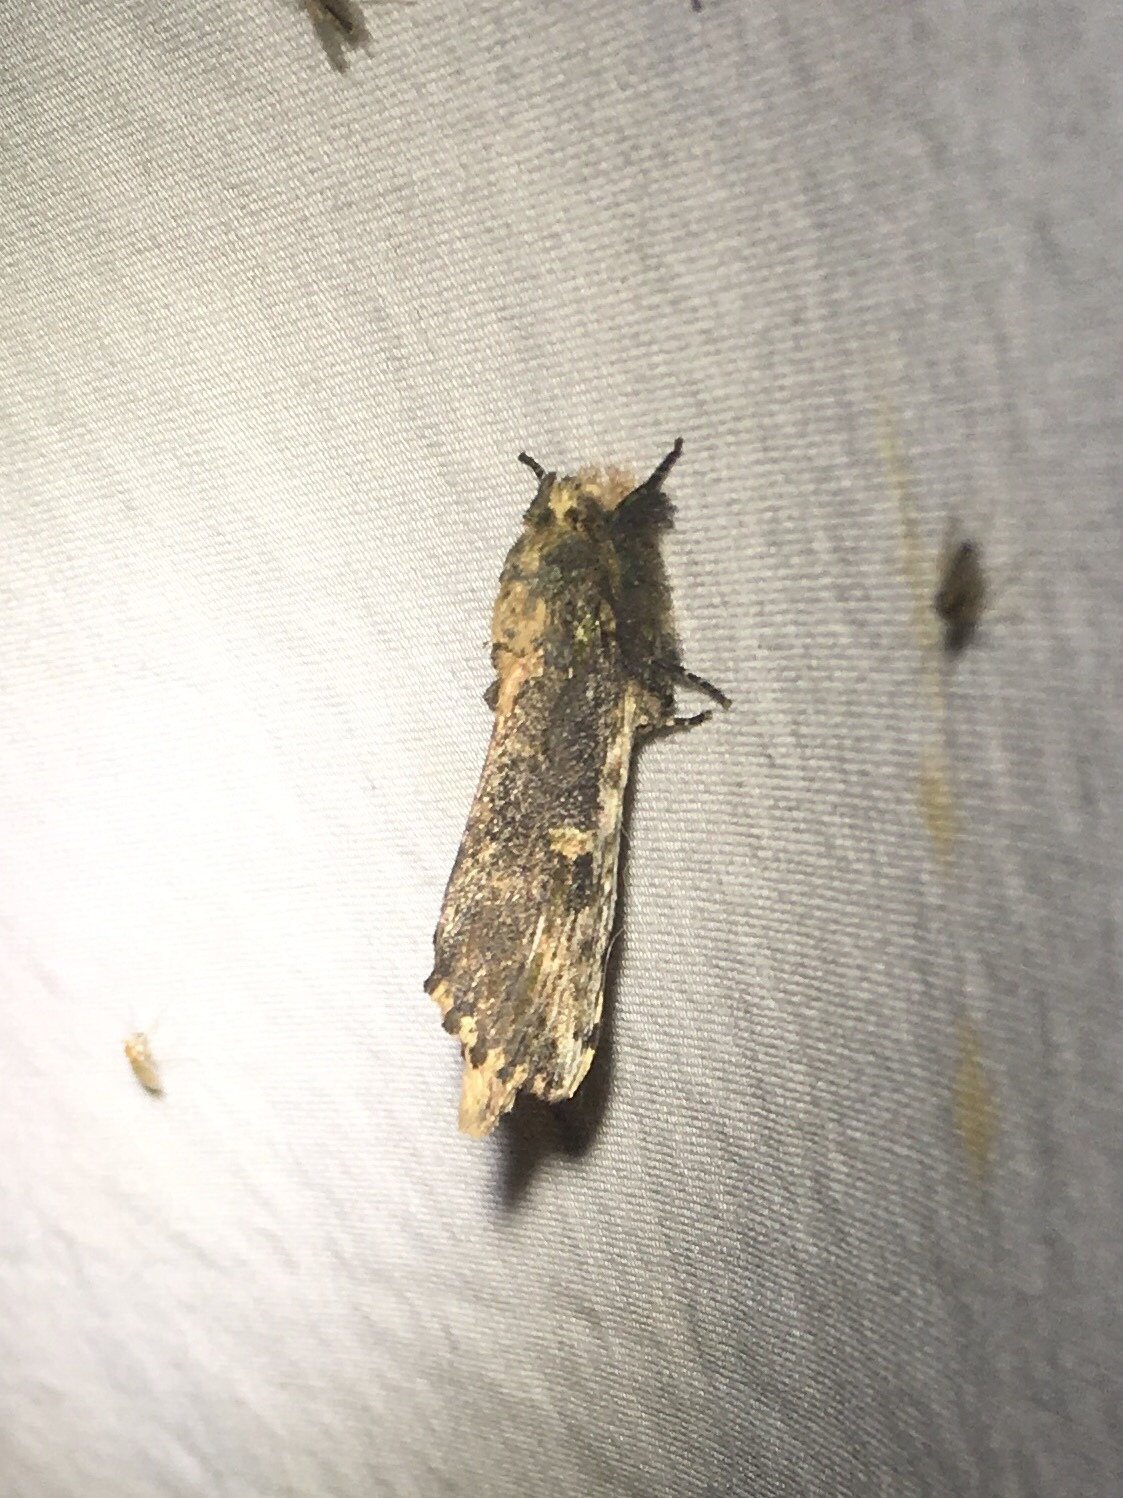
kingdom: Animalia
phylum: Arthropoda
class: Insecta
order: Lepidoptera
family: Notodontidae
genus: Schizura
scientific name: Schizura ipomaeae
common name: Morning-glory prominent
